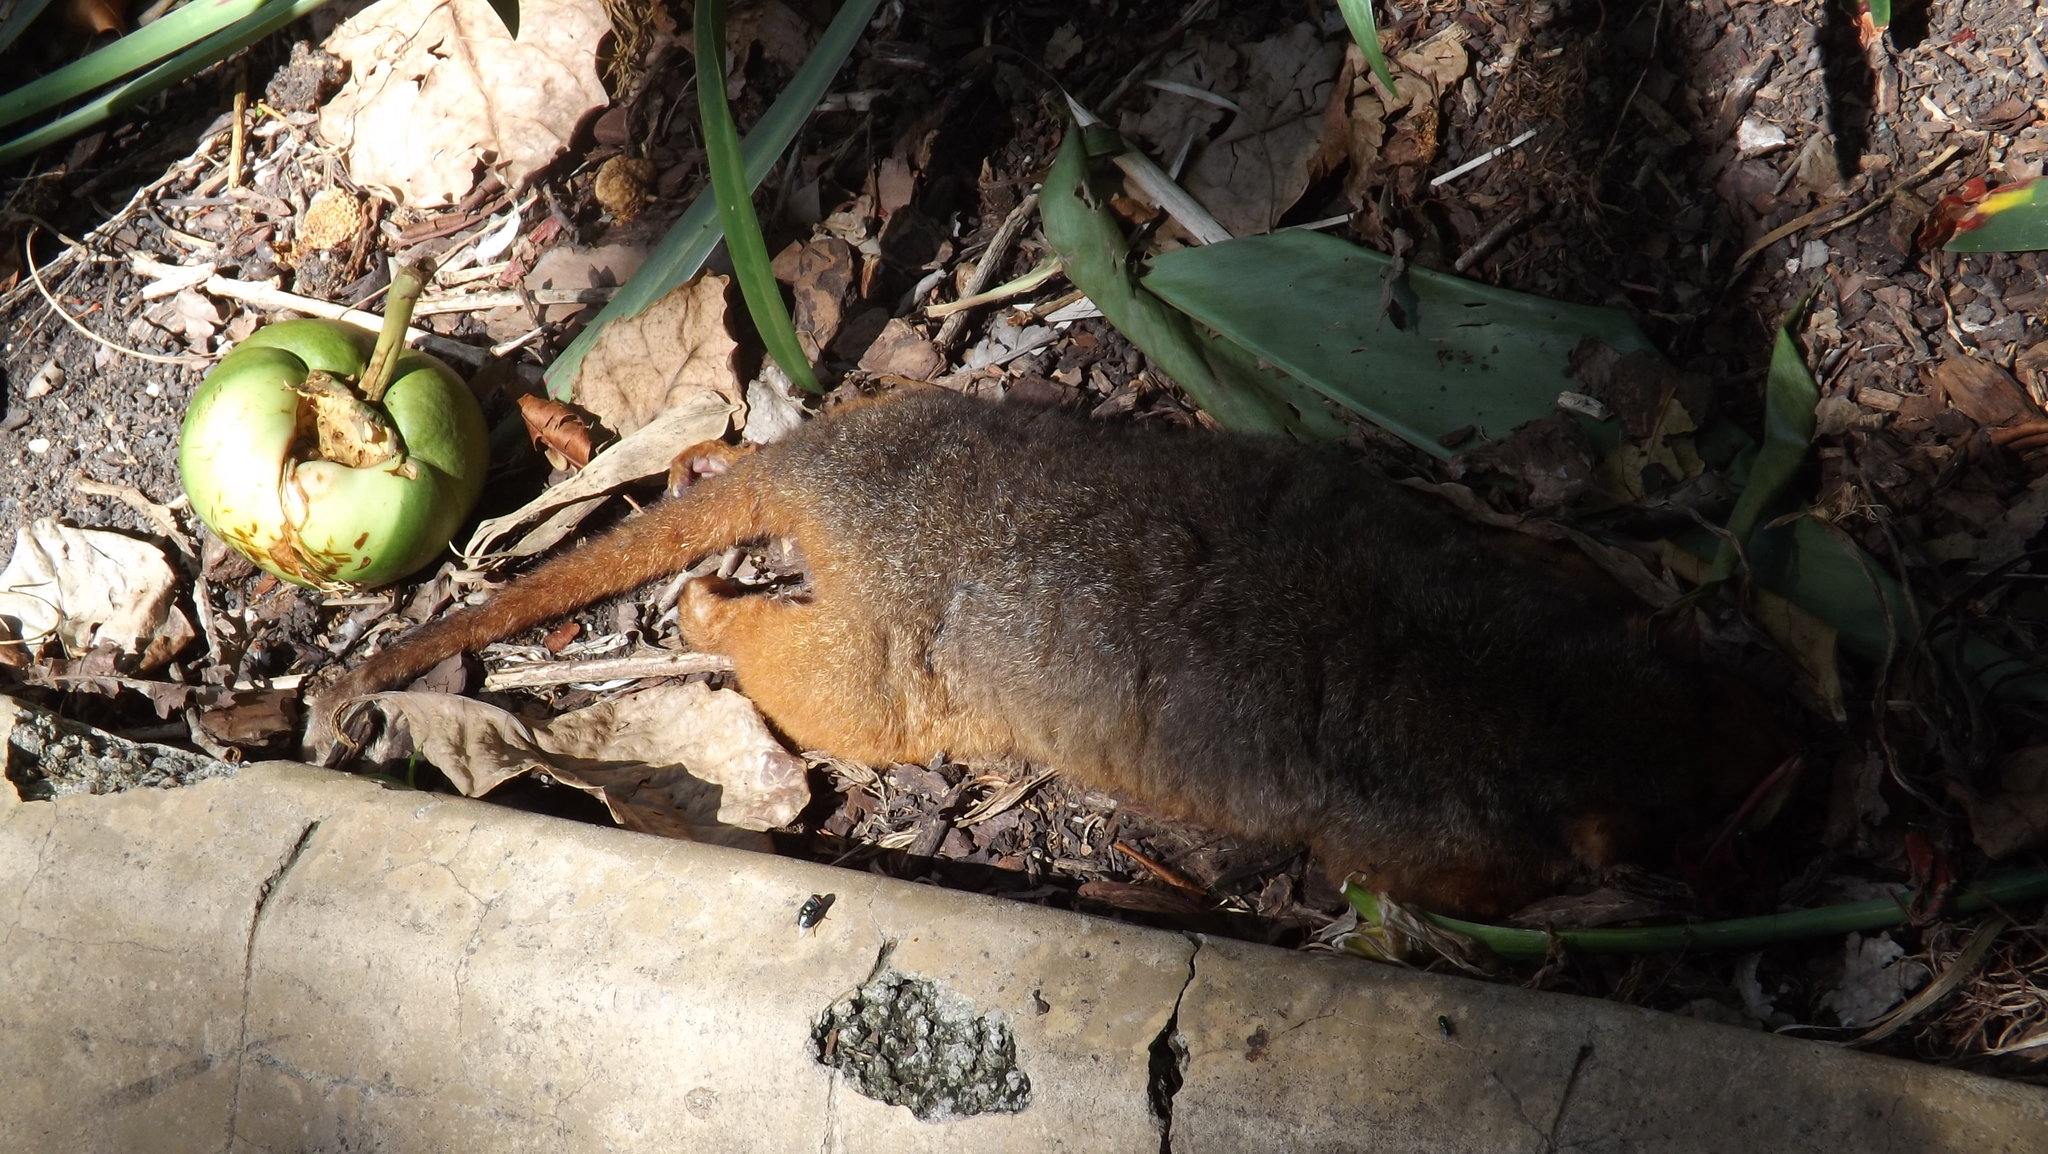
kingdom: Animalia
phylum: Chordata
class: Mammalia
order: Diprotodontia
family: Pseudocheiridae
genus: Pseudocheirus
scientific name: Pseudocheirus peregrinus
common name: Common ringtail possum
